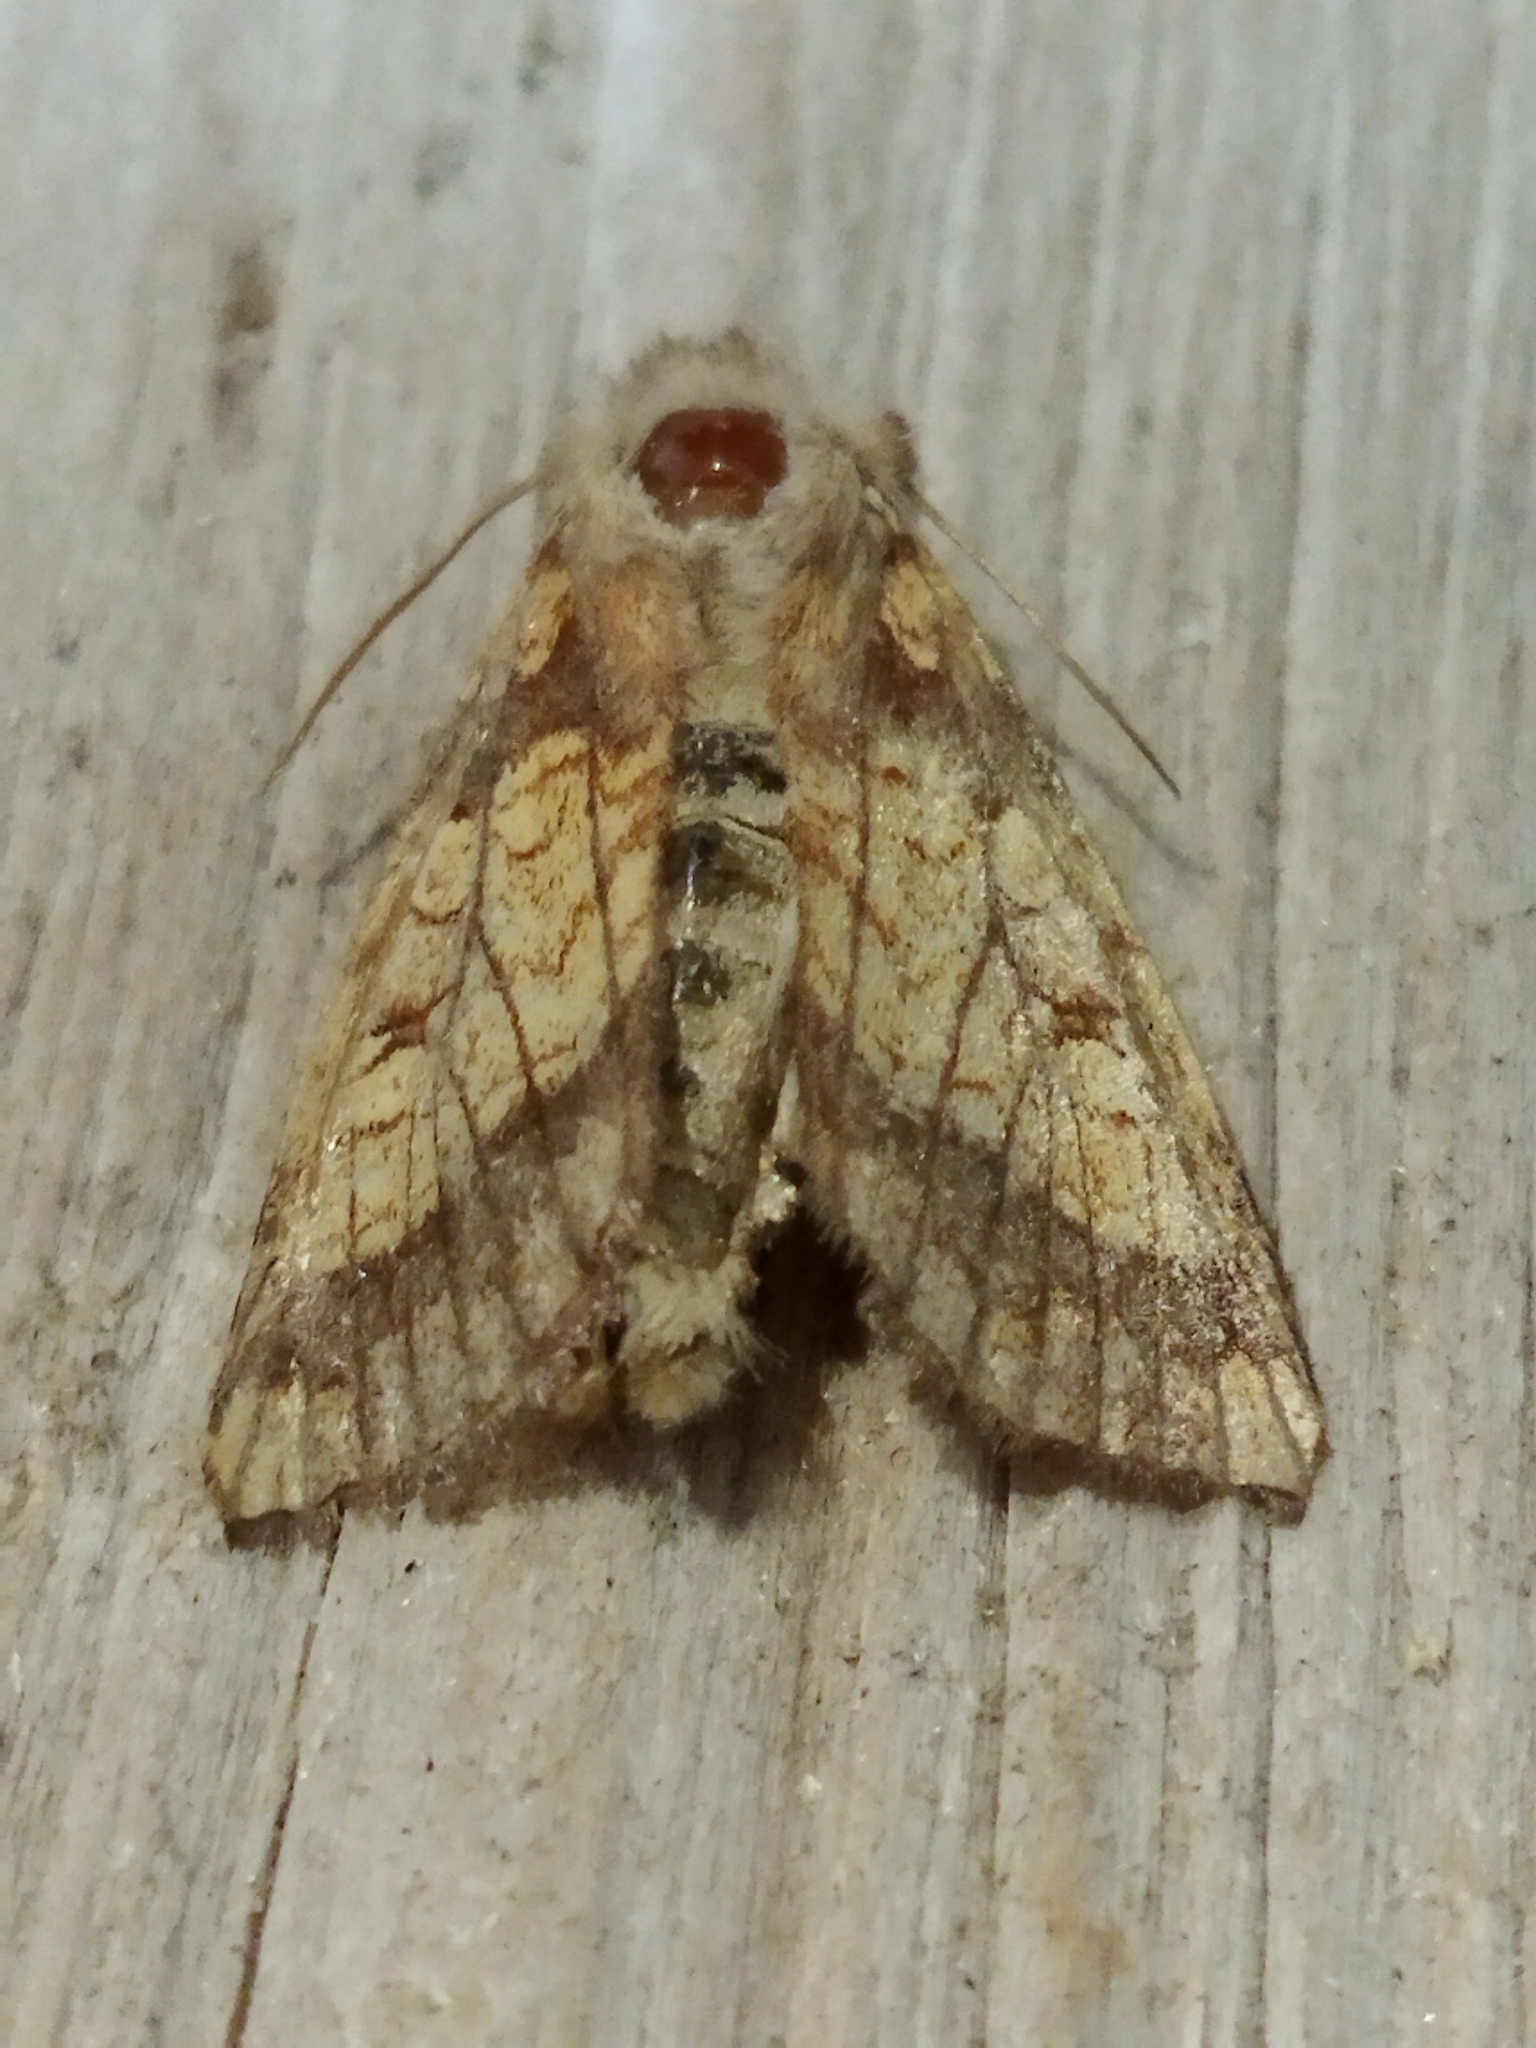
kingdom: Animalia
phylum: Arthropoda
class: Insecta
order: Lepidoptera
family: Noctuidae
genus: Gortyna
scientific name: Gortyna flavago
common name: Frosted orange
